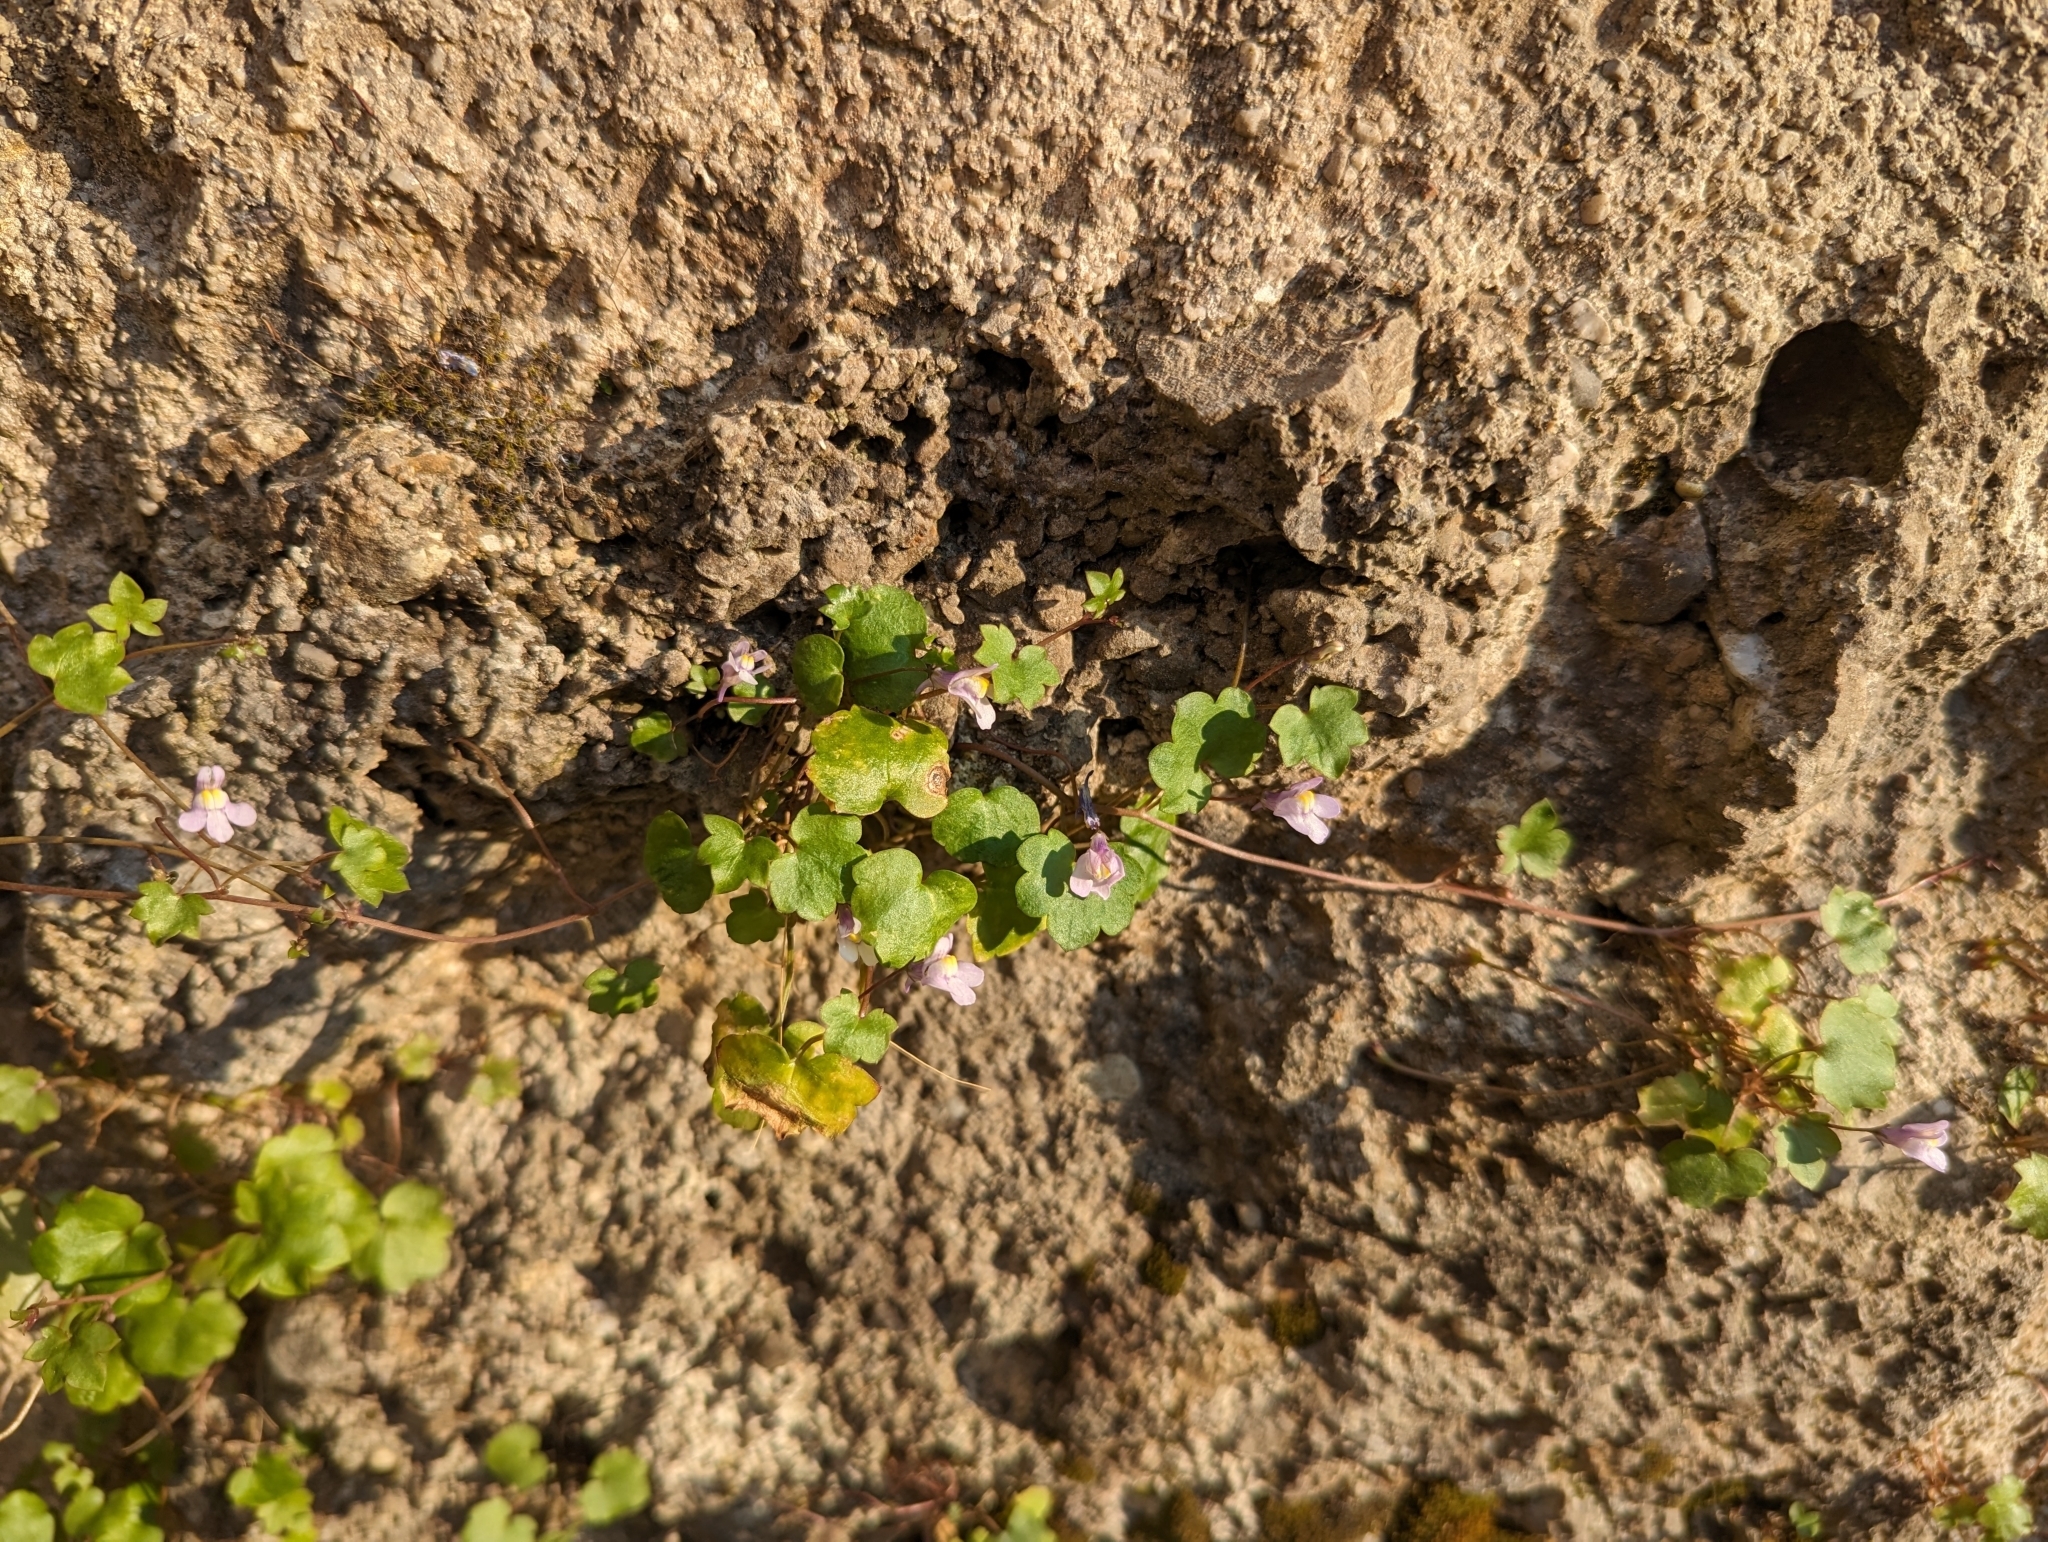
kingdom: Plantae
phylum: Tracheophyta
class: Magnoliopsida
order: Lamiales
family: Plantaginaceae
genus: Cymbalaria
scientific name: Cymbalaria muralis
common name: Ivy-leaved toadflax
